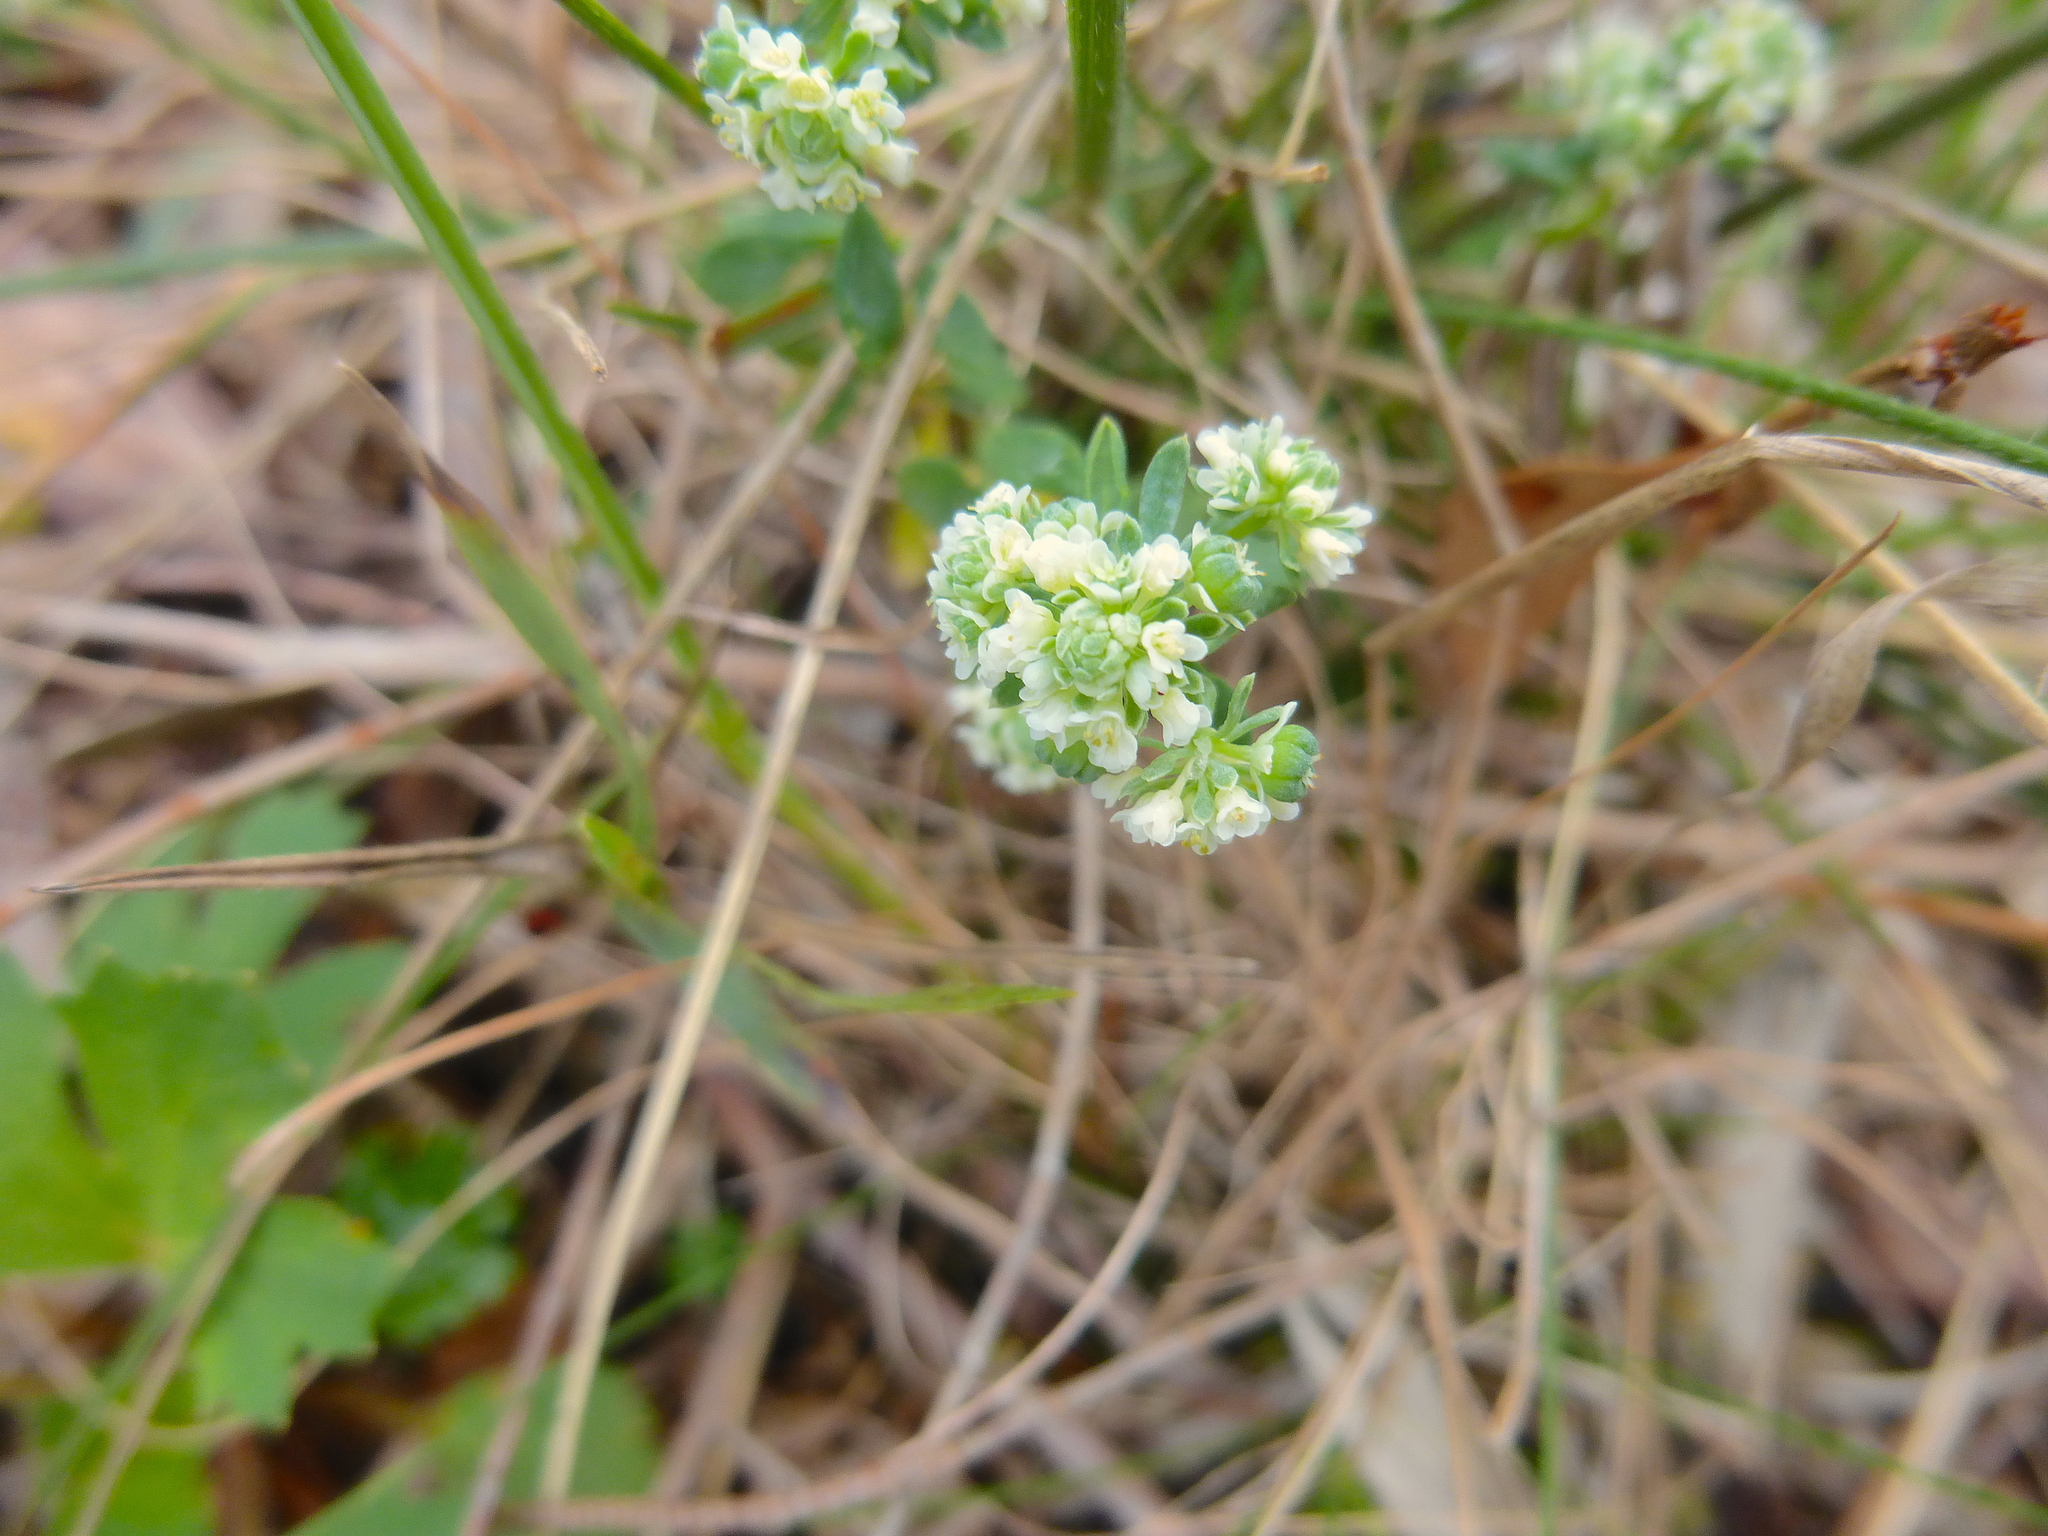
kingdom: Plantae
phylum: Tracheophyta
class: Magnoliopsida
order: Malpighiales
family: Phyllanthaceae
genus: Poranthera
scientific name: Poranthera microphylla
